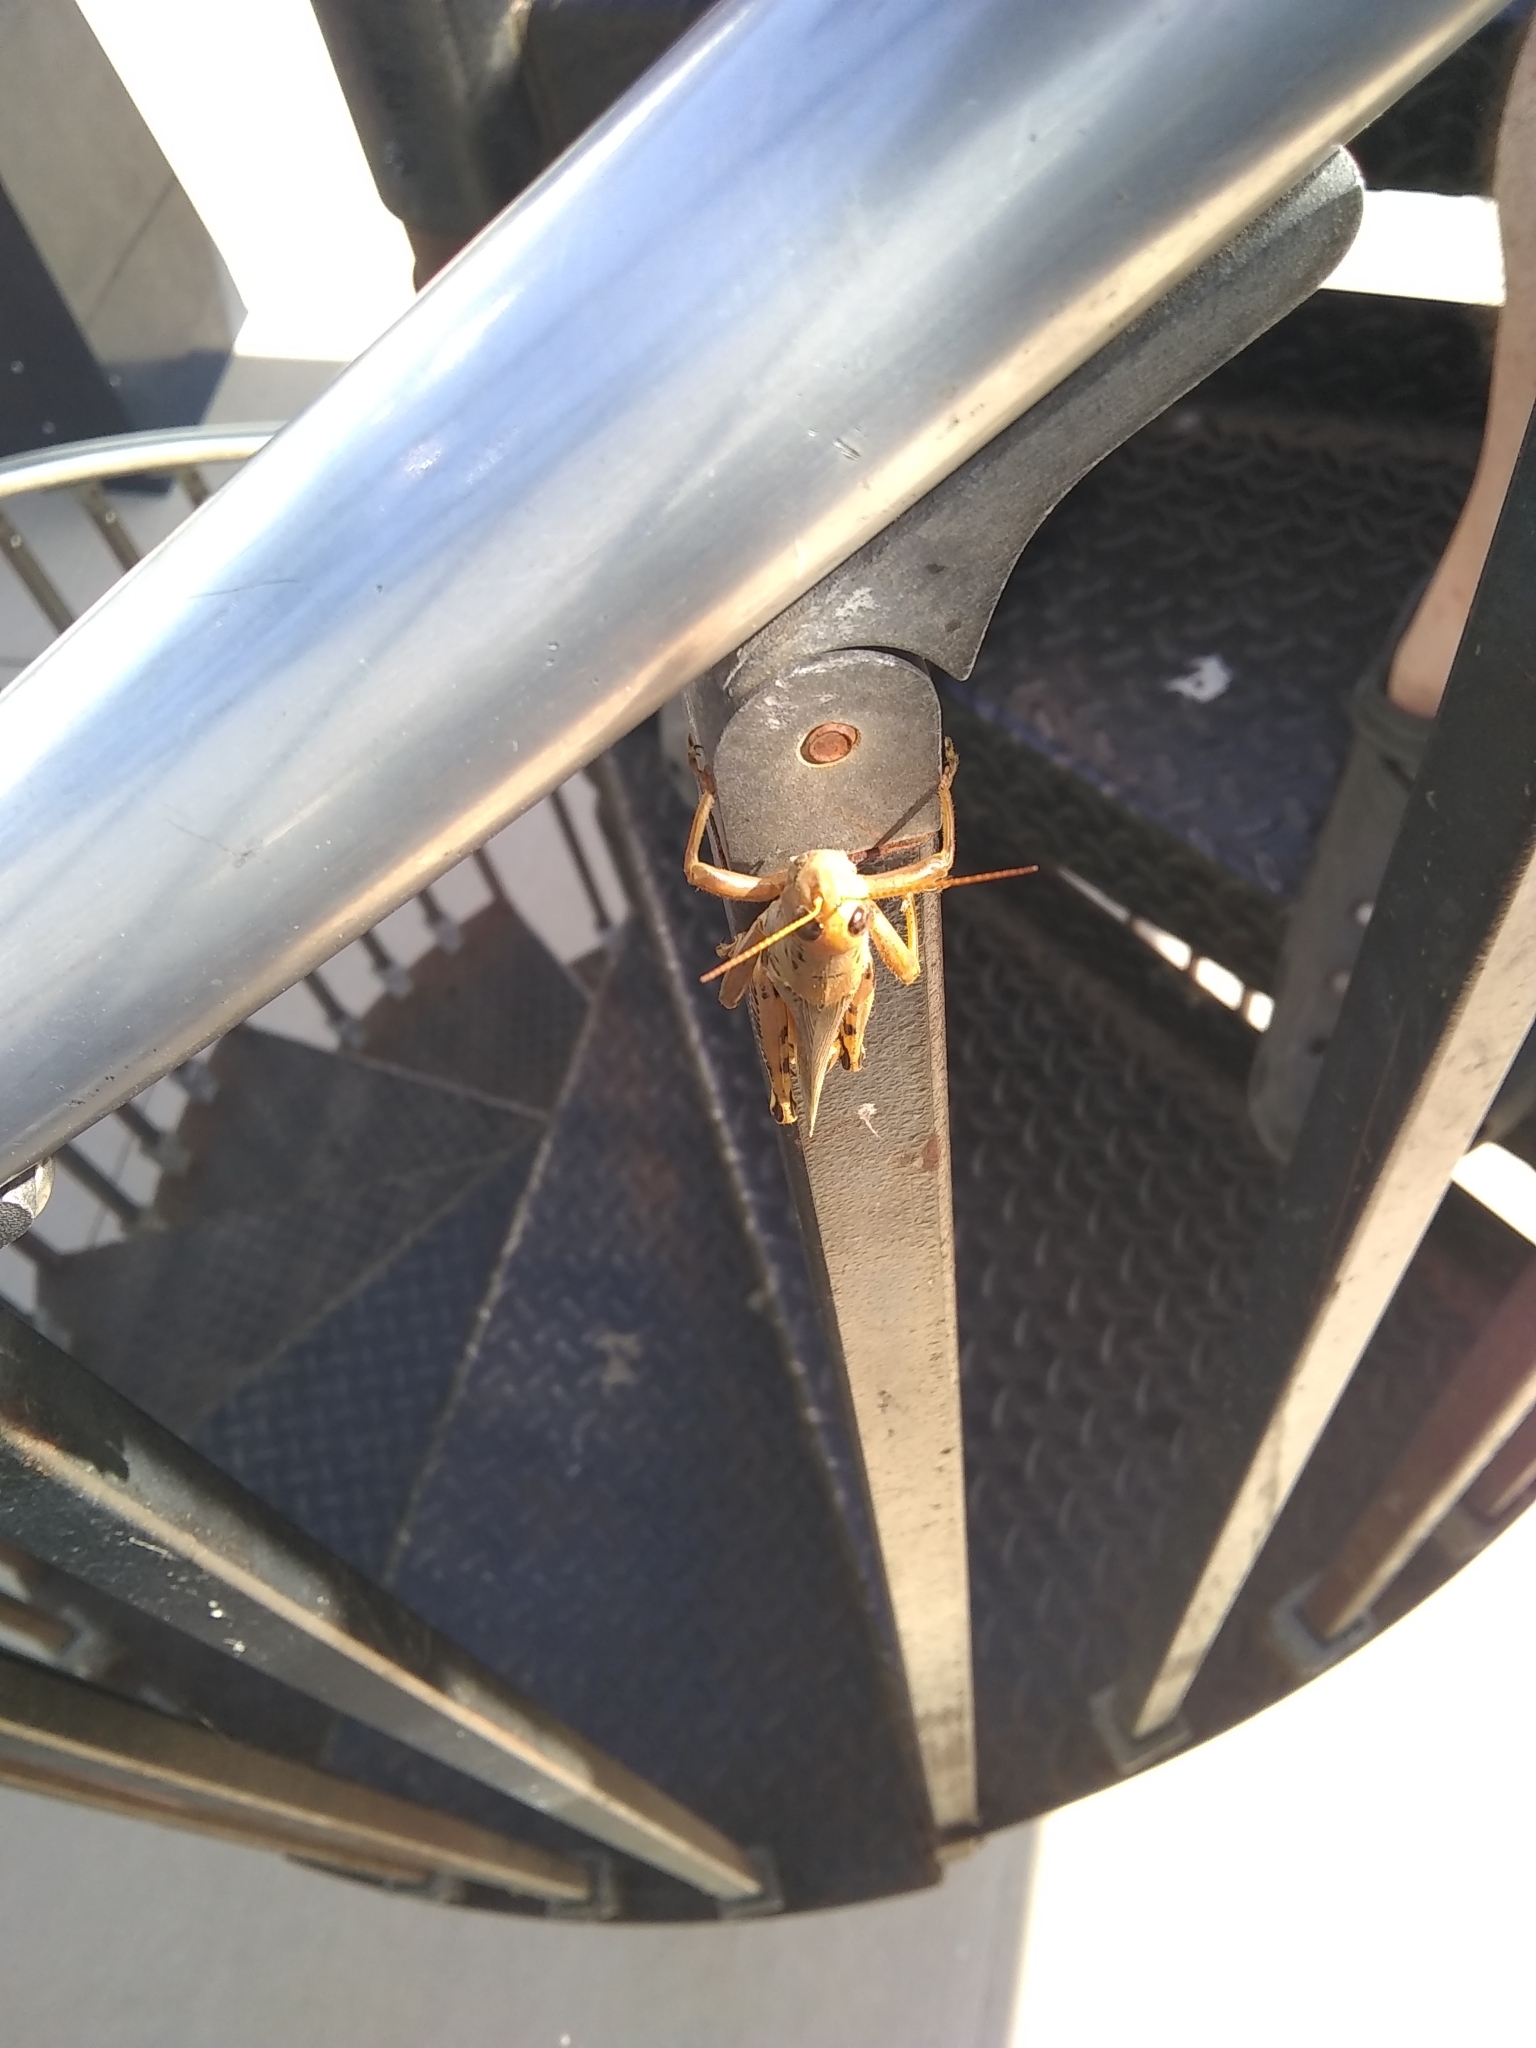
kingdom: Animalia
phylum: Arthropoda
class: Insecta
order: Orthoptera
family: Acrididae
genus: Melanoplus
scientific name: Melanoplus differentialis
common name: Differential grasshopper
